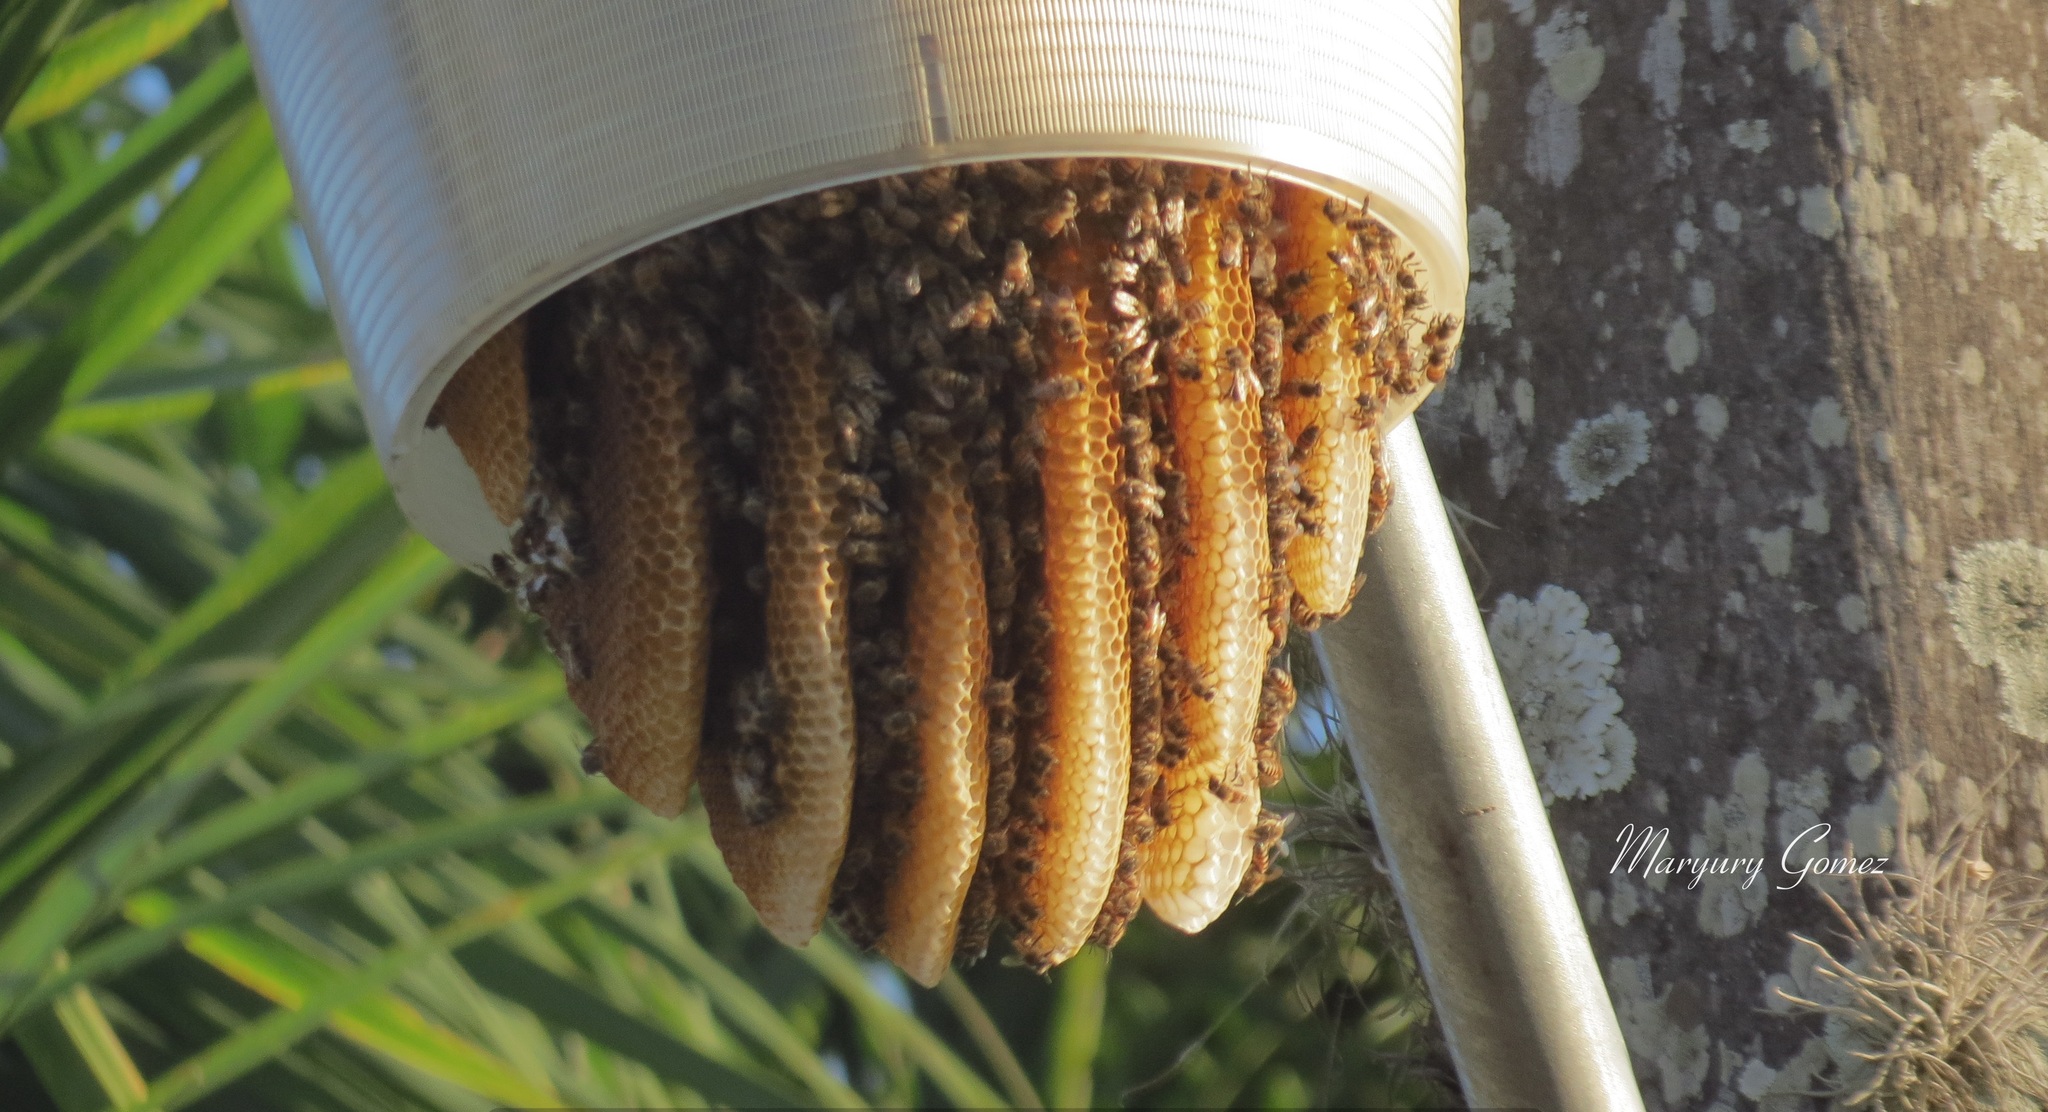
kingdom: Animalia
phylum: Arthropoda
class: Insecta
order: Hymenoptera
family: Apidae
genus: Apis
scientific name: Apis mellifera
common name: Honey bee
